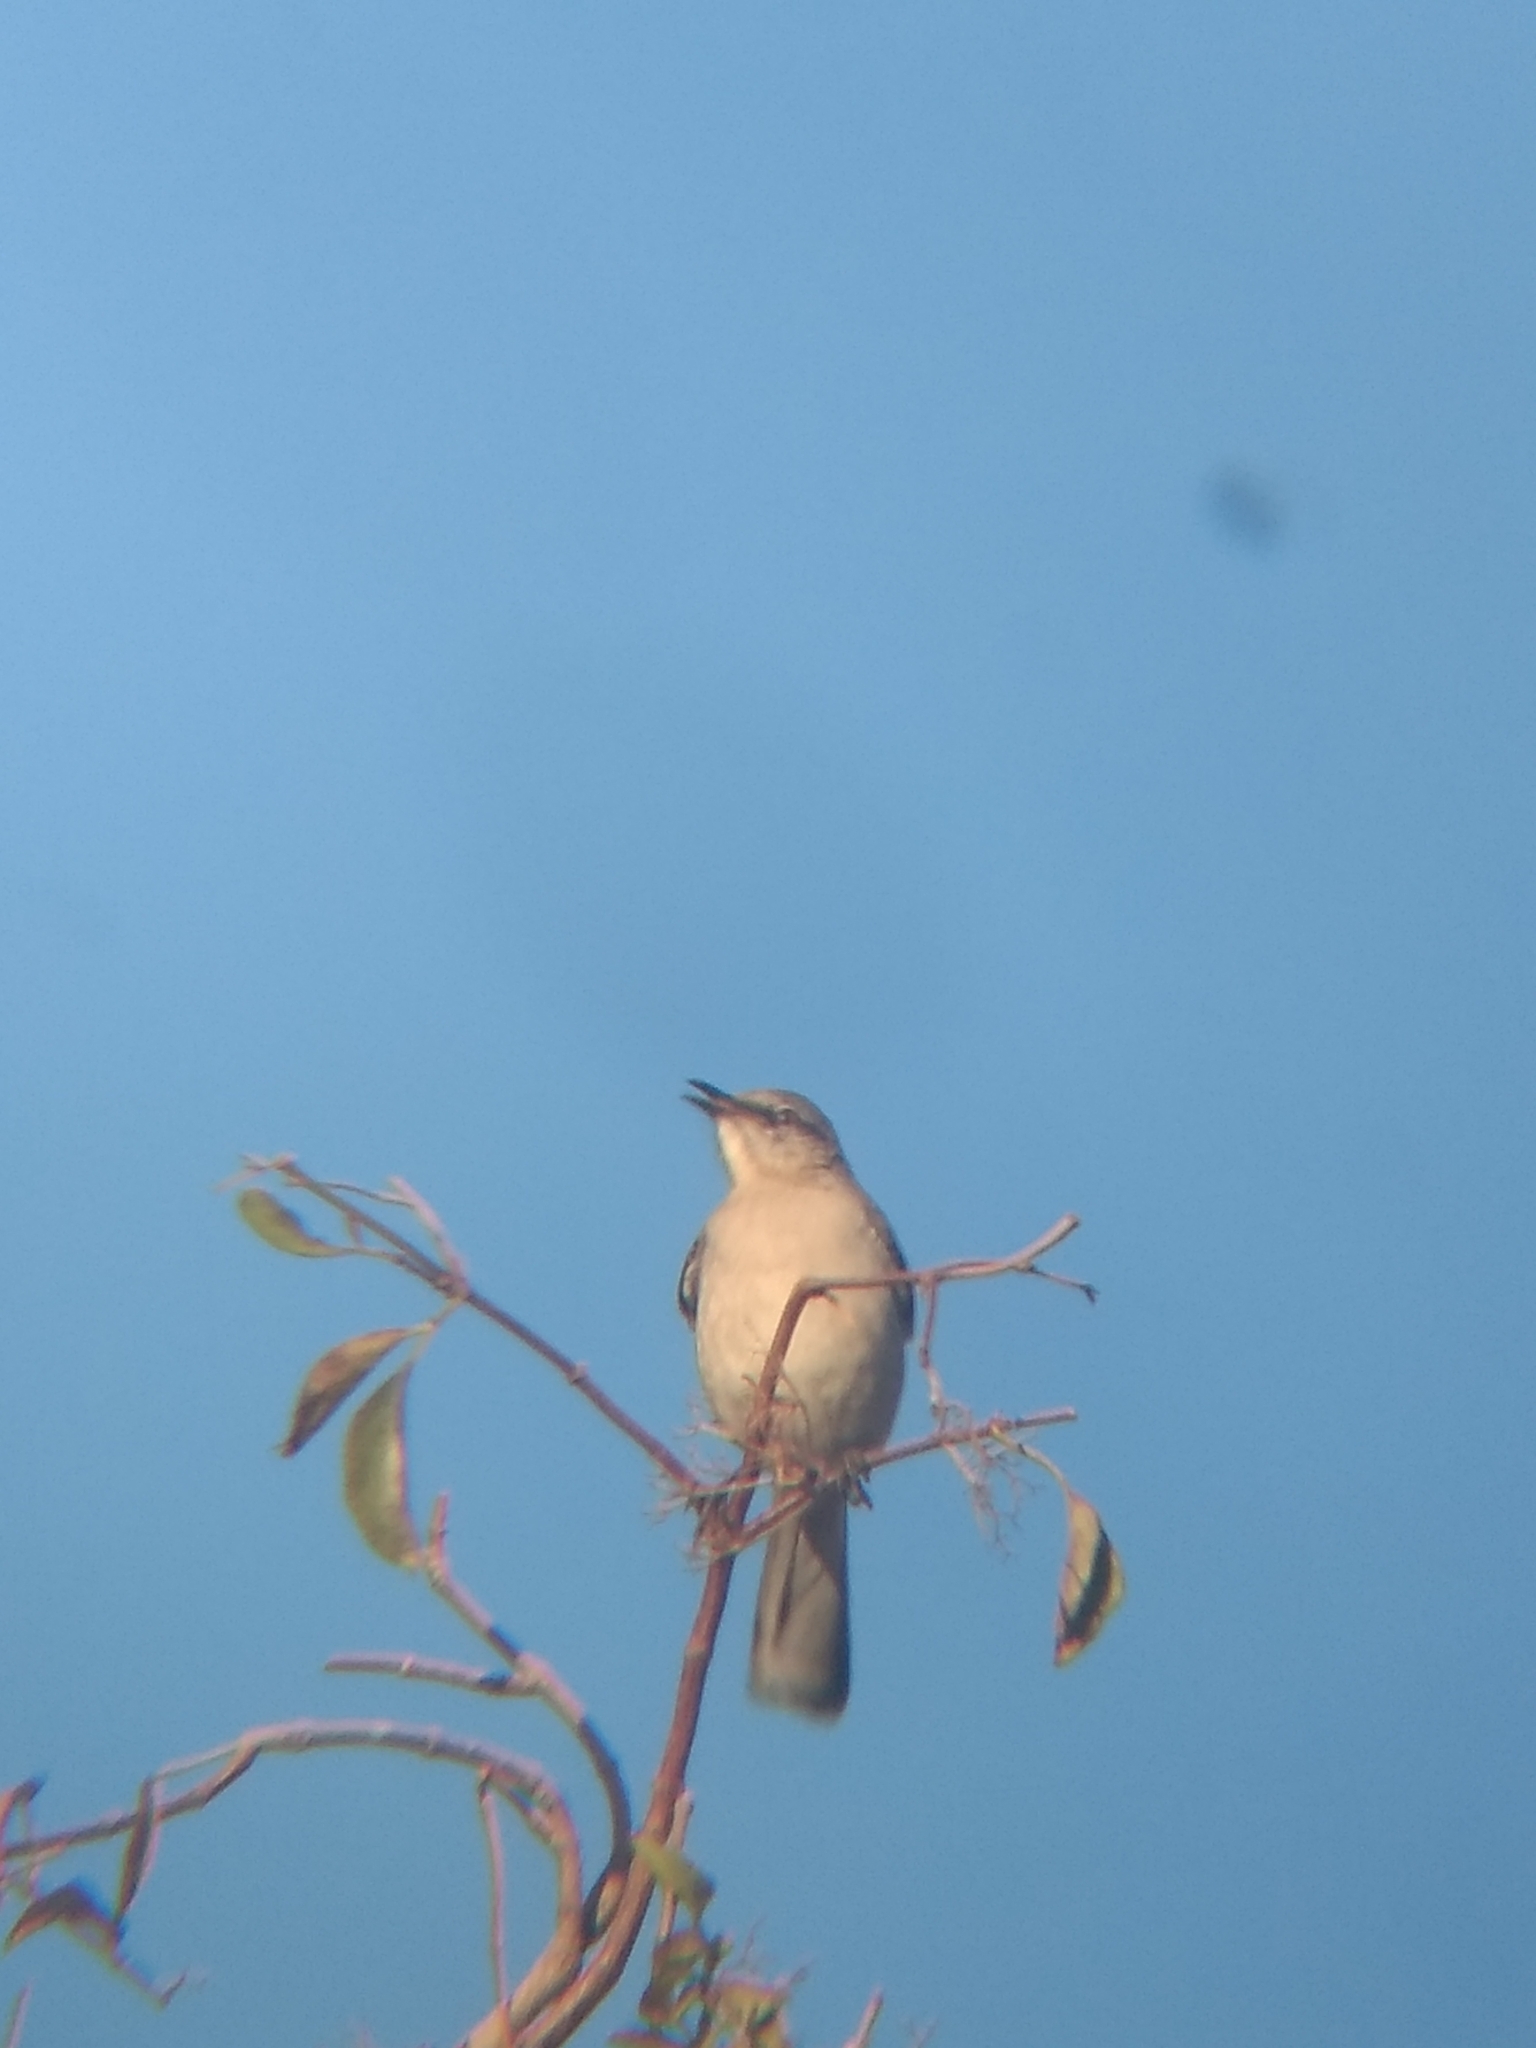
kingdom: Animalia
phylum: Chordata
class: Aves
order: Passeriformes
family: Mimidae
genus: Mimus
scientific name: Mimus polyglottos
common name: Northern mockingbird
